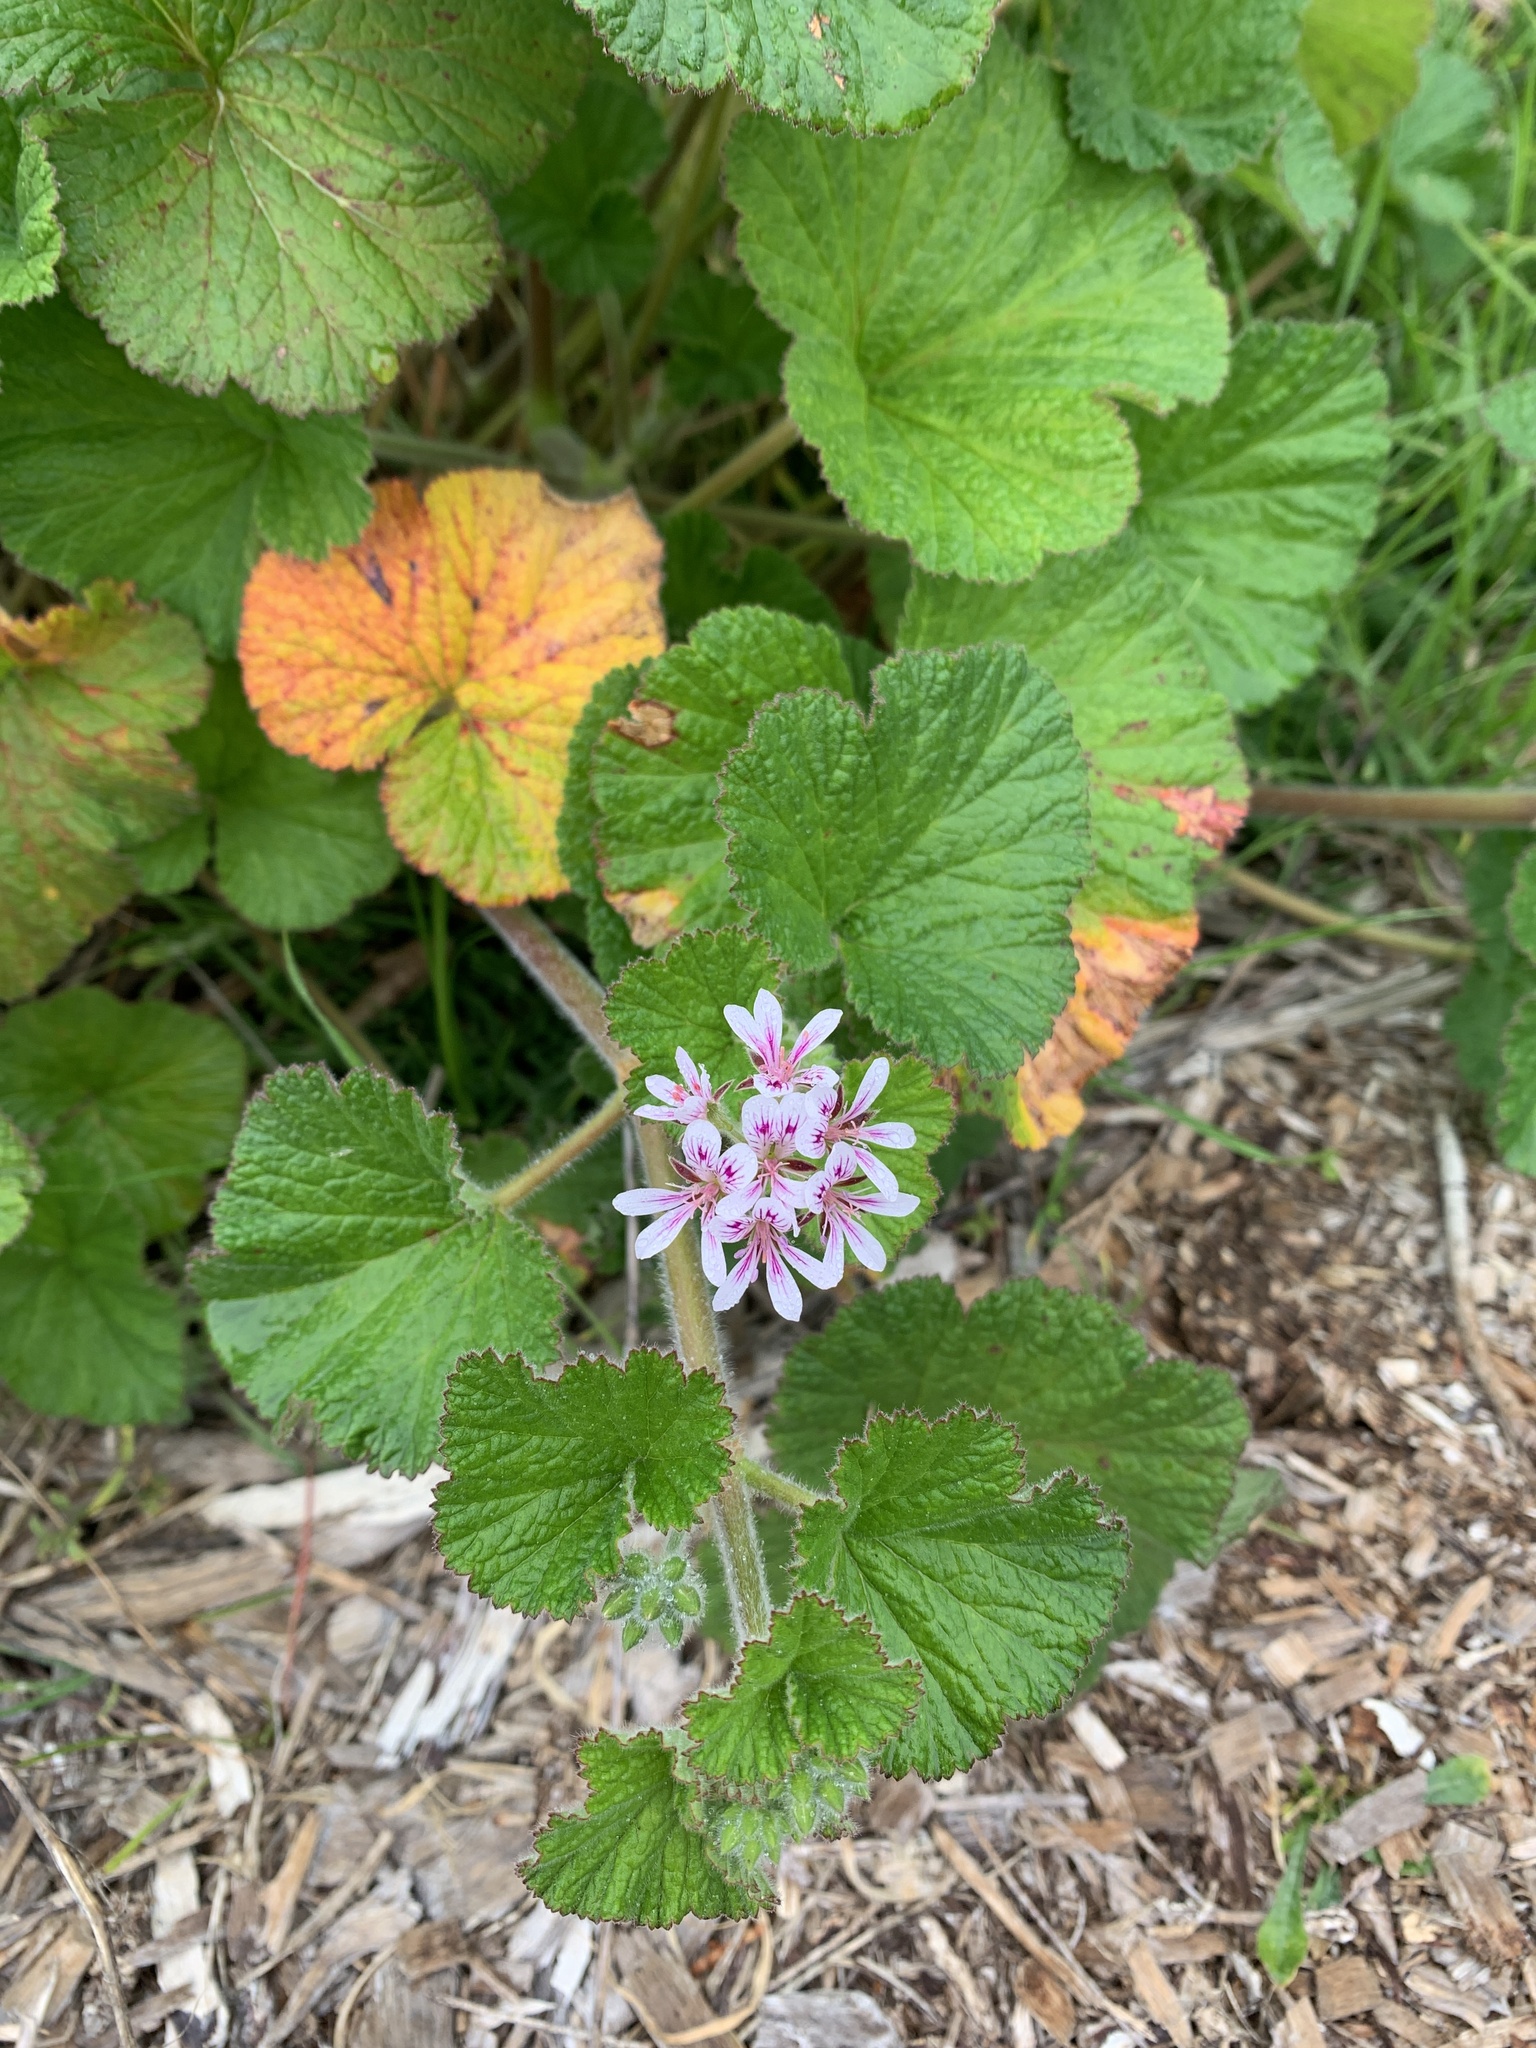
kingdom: Plantae
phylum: Tracheophyta
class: Magnoliopsida
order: Geraniales
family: Geraniaceae
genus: Pelargonium
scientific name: Pelargonium australe
